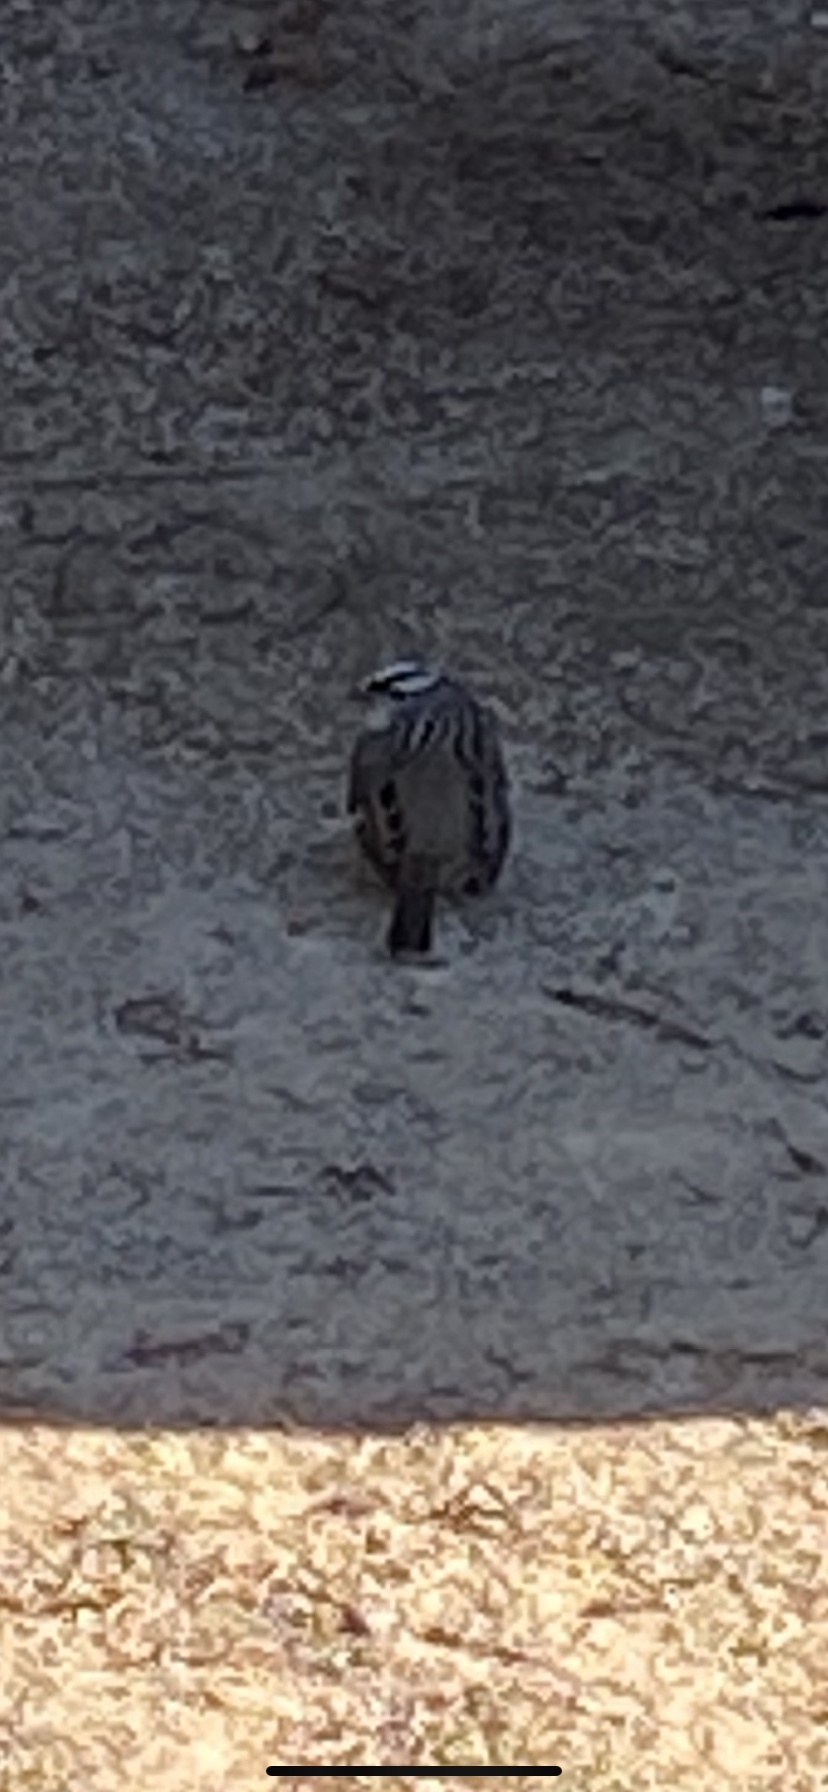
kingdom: Animalia
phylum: Chordata
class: Aves
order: Passeriformes
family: Passerellidae
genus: Zonotrichia
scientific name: Zonotrichia leucophrys
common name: White-crowned sparrow
